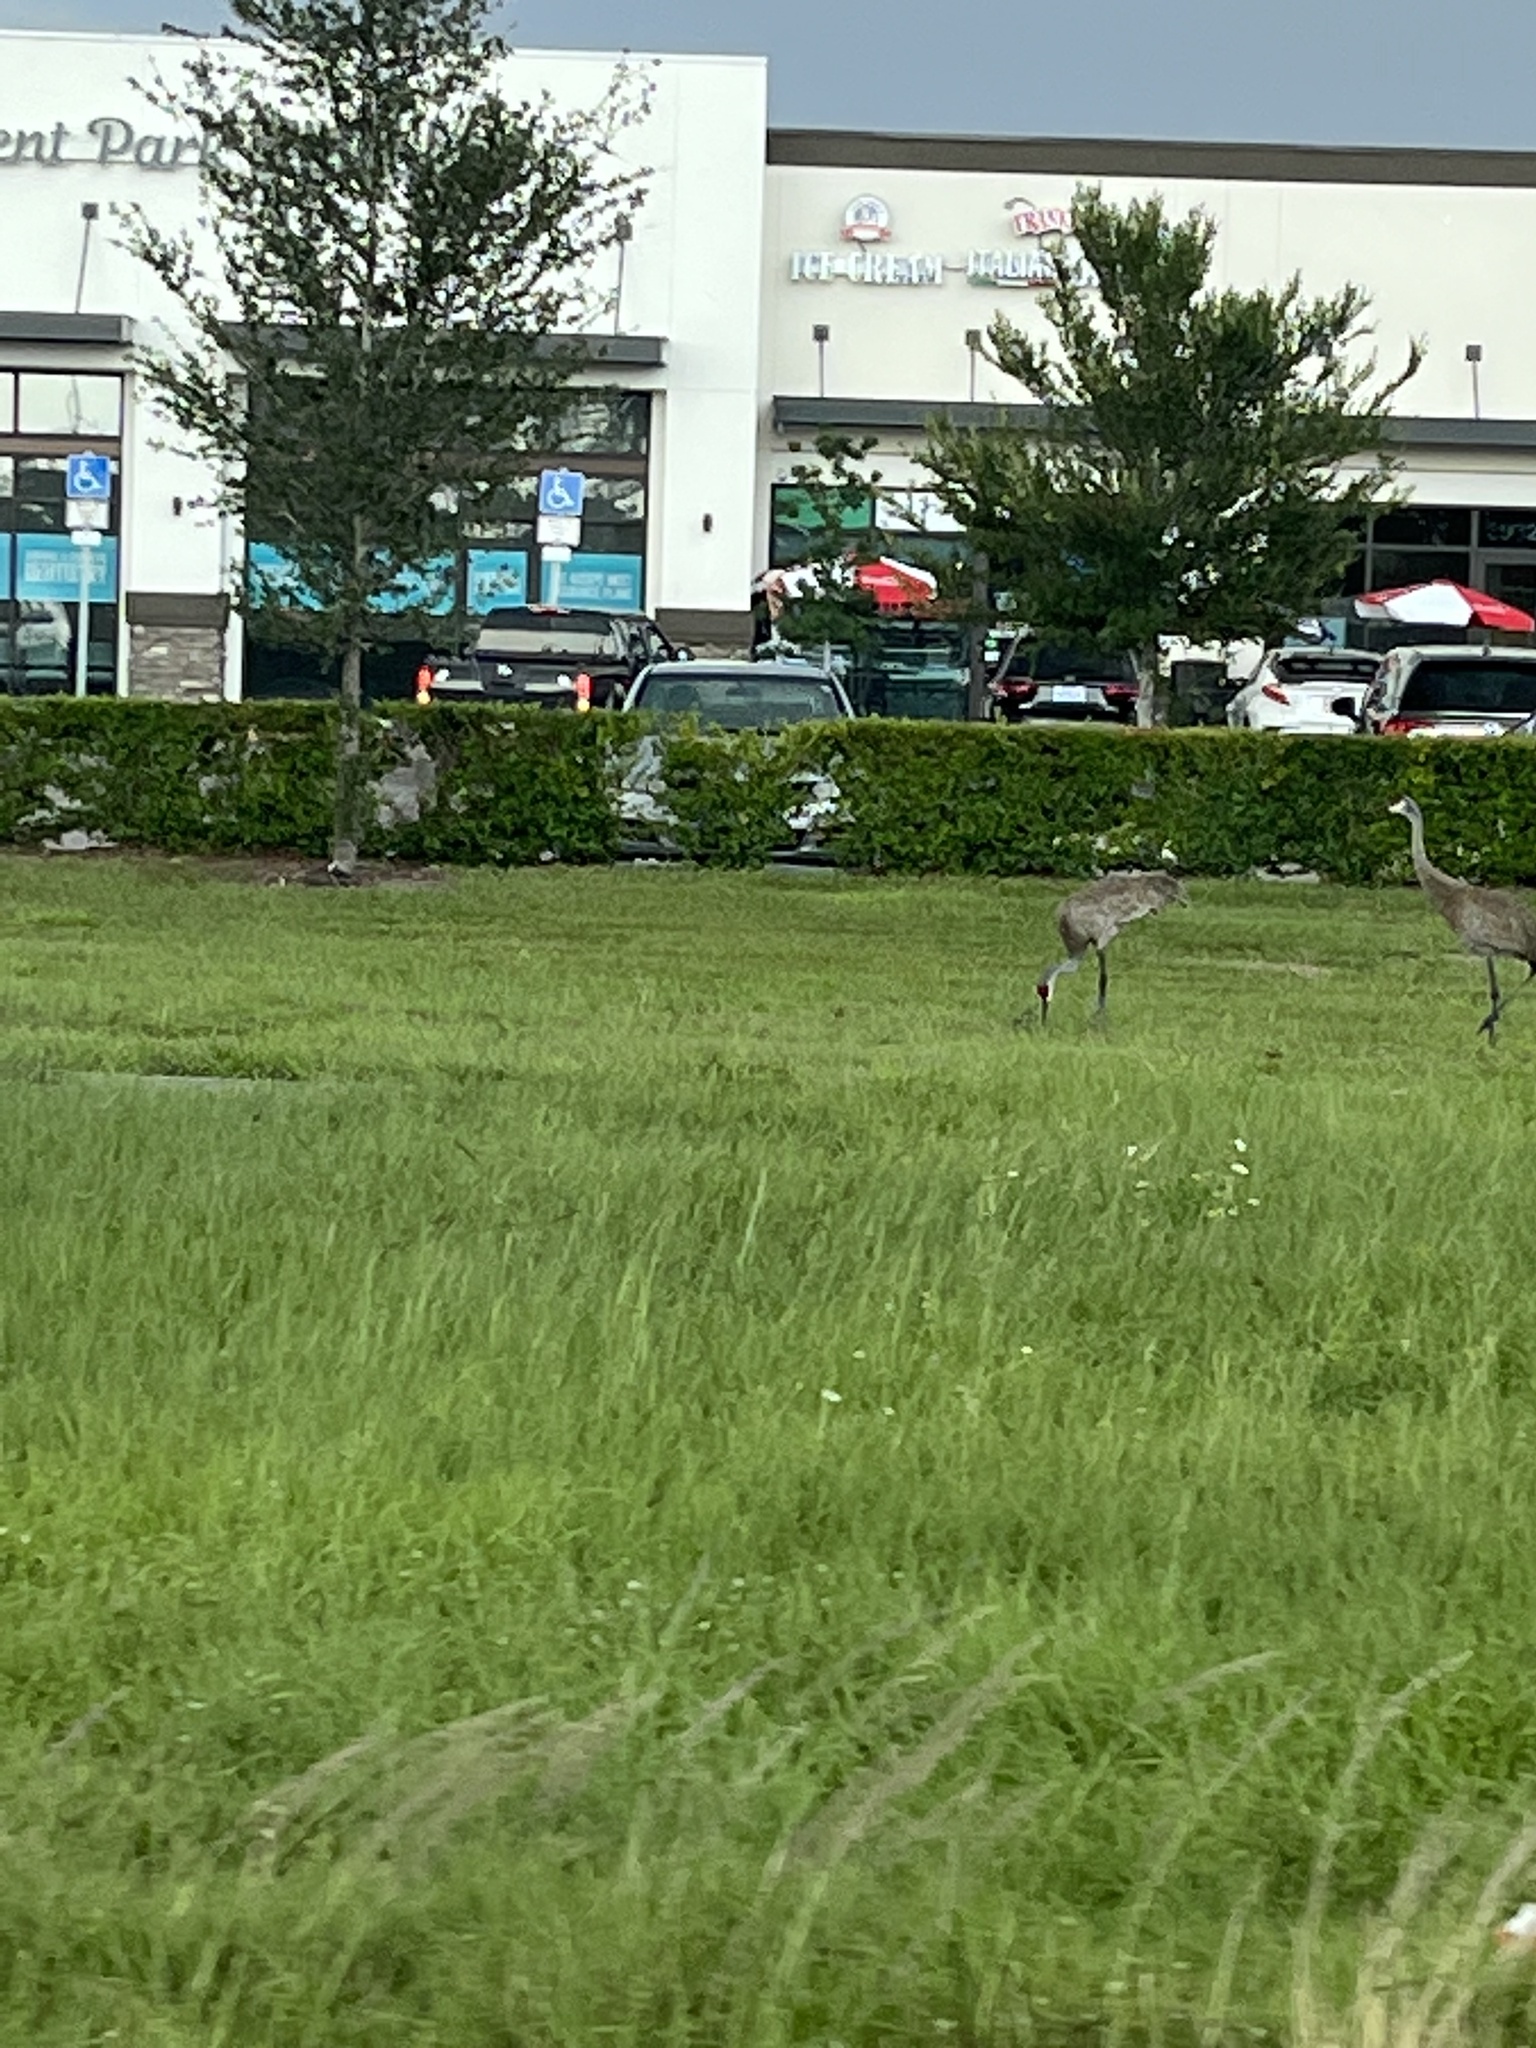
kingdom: Animalia
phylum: Chordata
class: Aves
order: Gruiformes
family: Gruidae
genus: Grus
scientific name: Grus canadensis
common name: Sandhill crane
